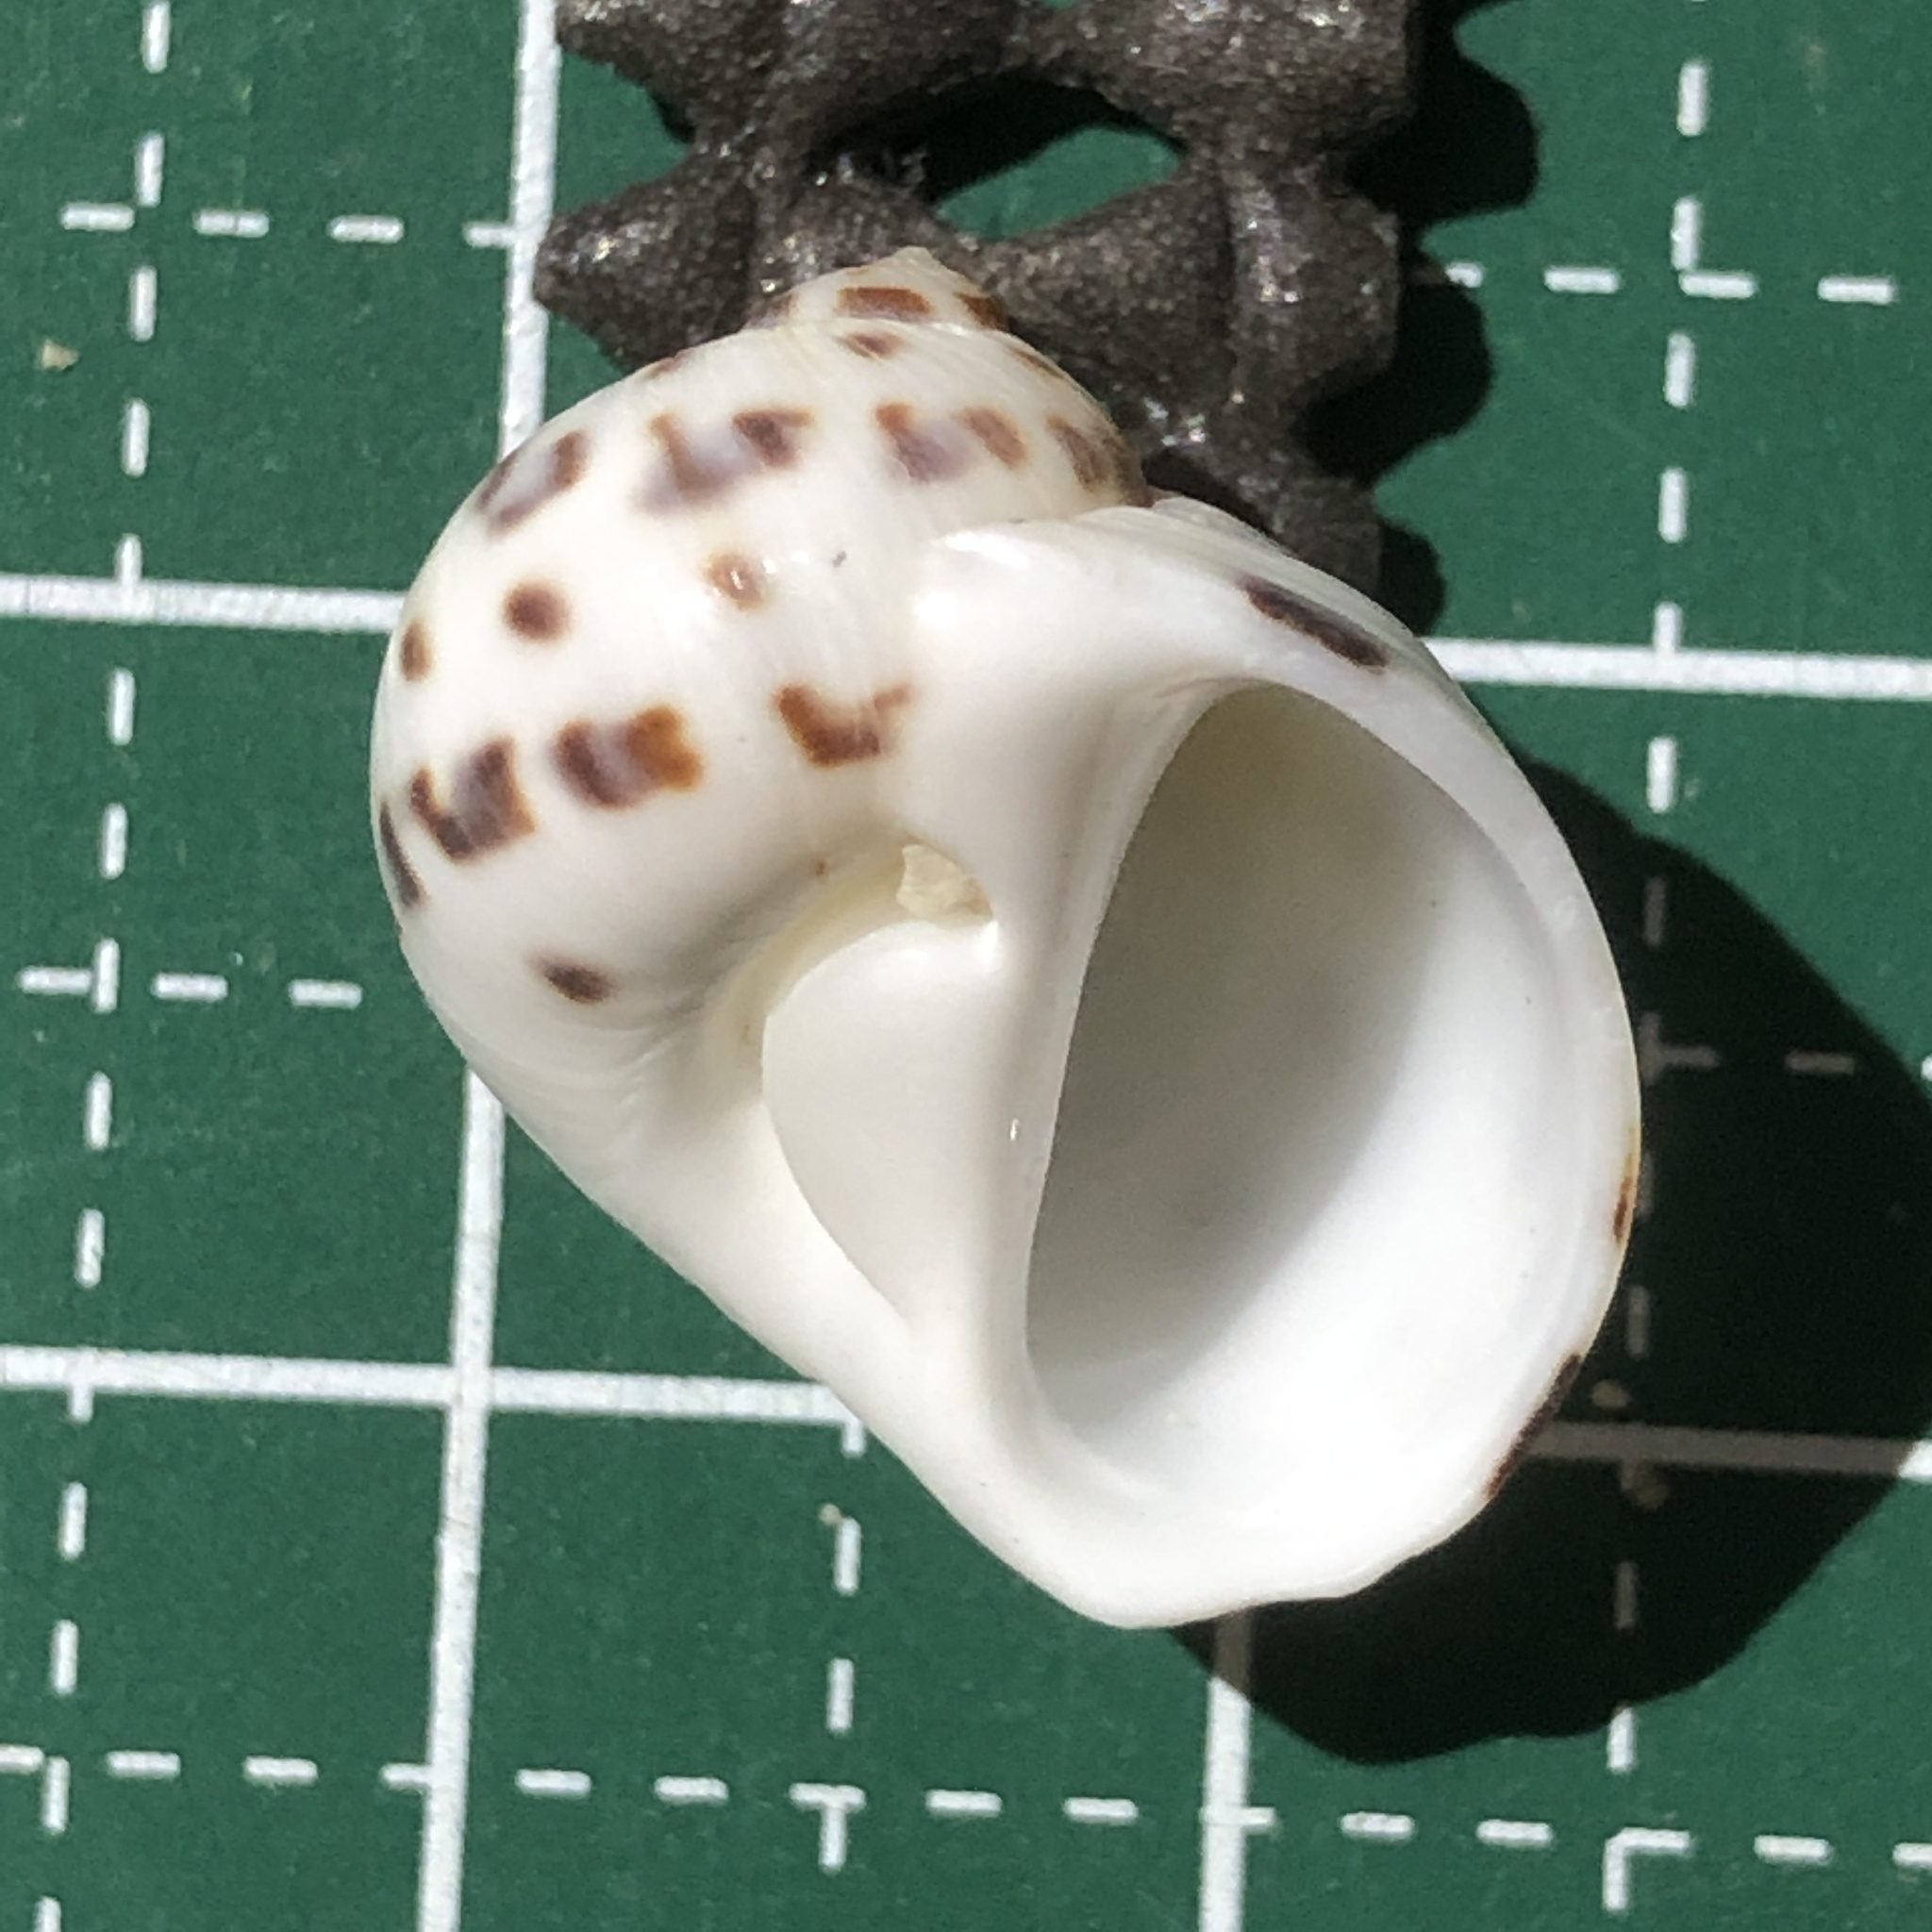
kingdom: Animalia
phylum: Mollusca
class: Gastropoda
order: Littorinimorpha
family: Naticidae
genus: Naticarius
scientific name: Naticarius onca
